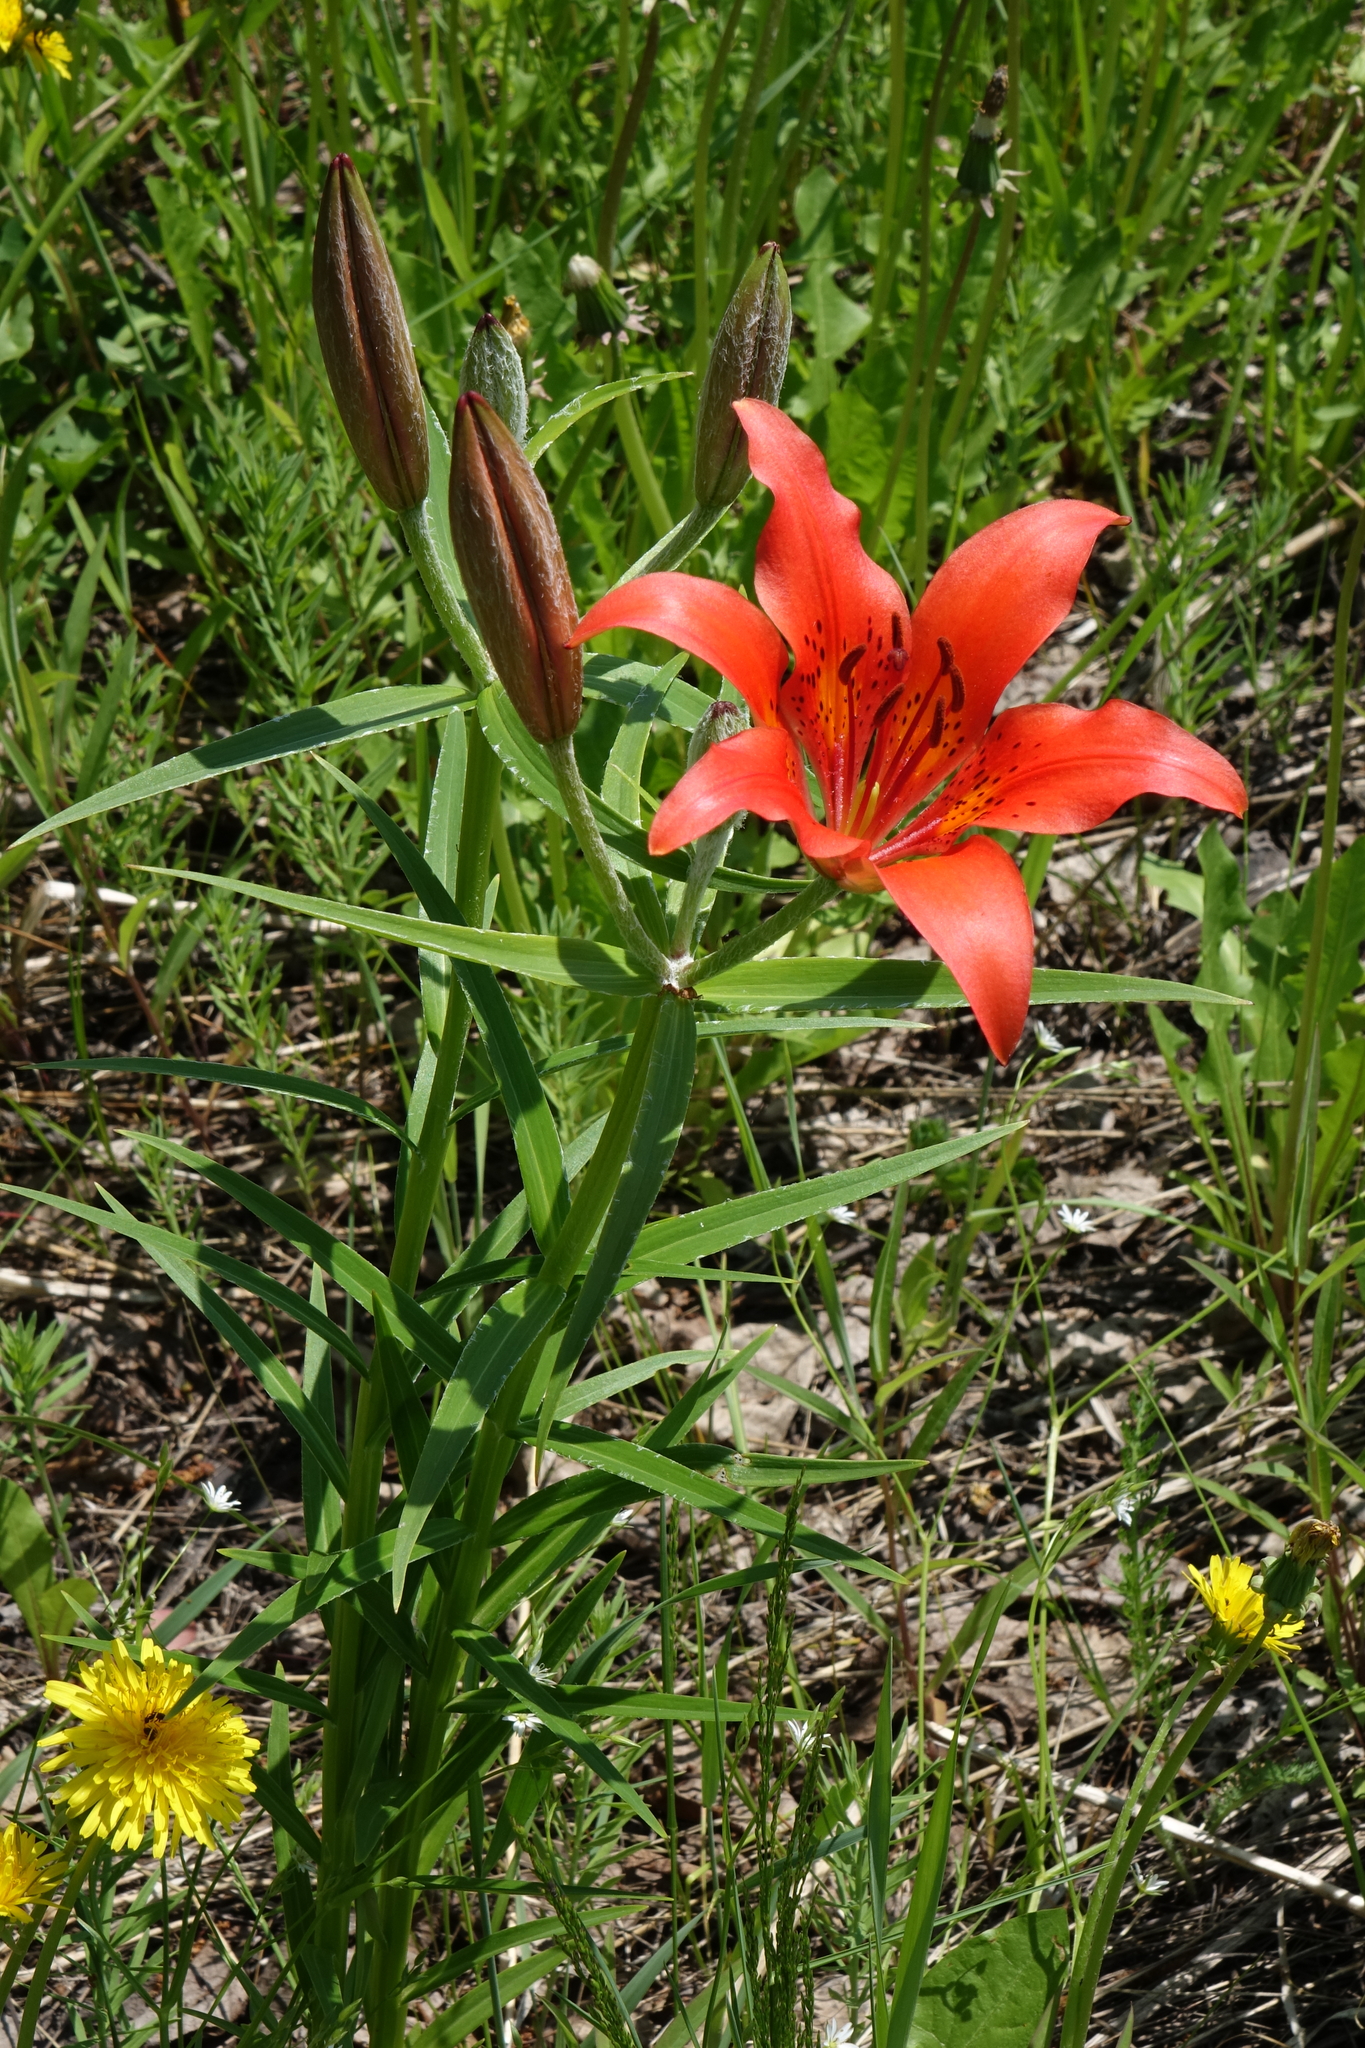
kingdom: Plantae
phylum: Tracheophyta
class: Liliopsida
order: Liliales
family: Liliaceae
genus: Lilium
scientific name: Lilium pensylvanicum
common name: Candlestick lily
